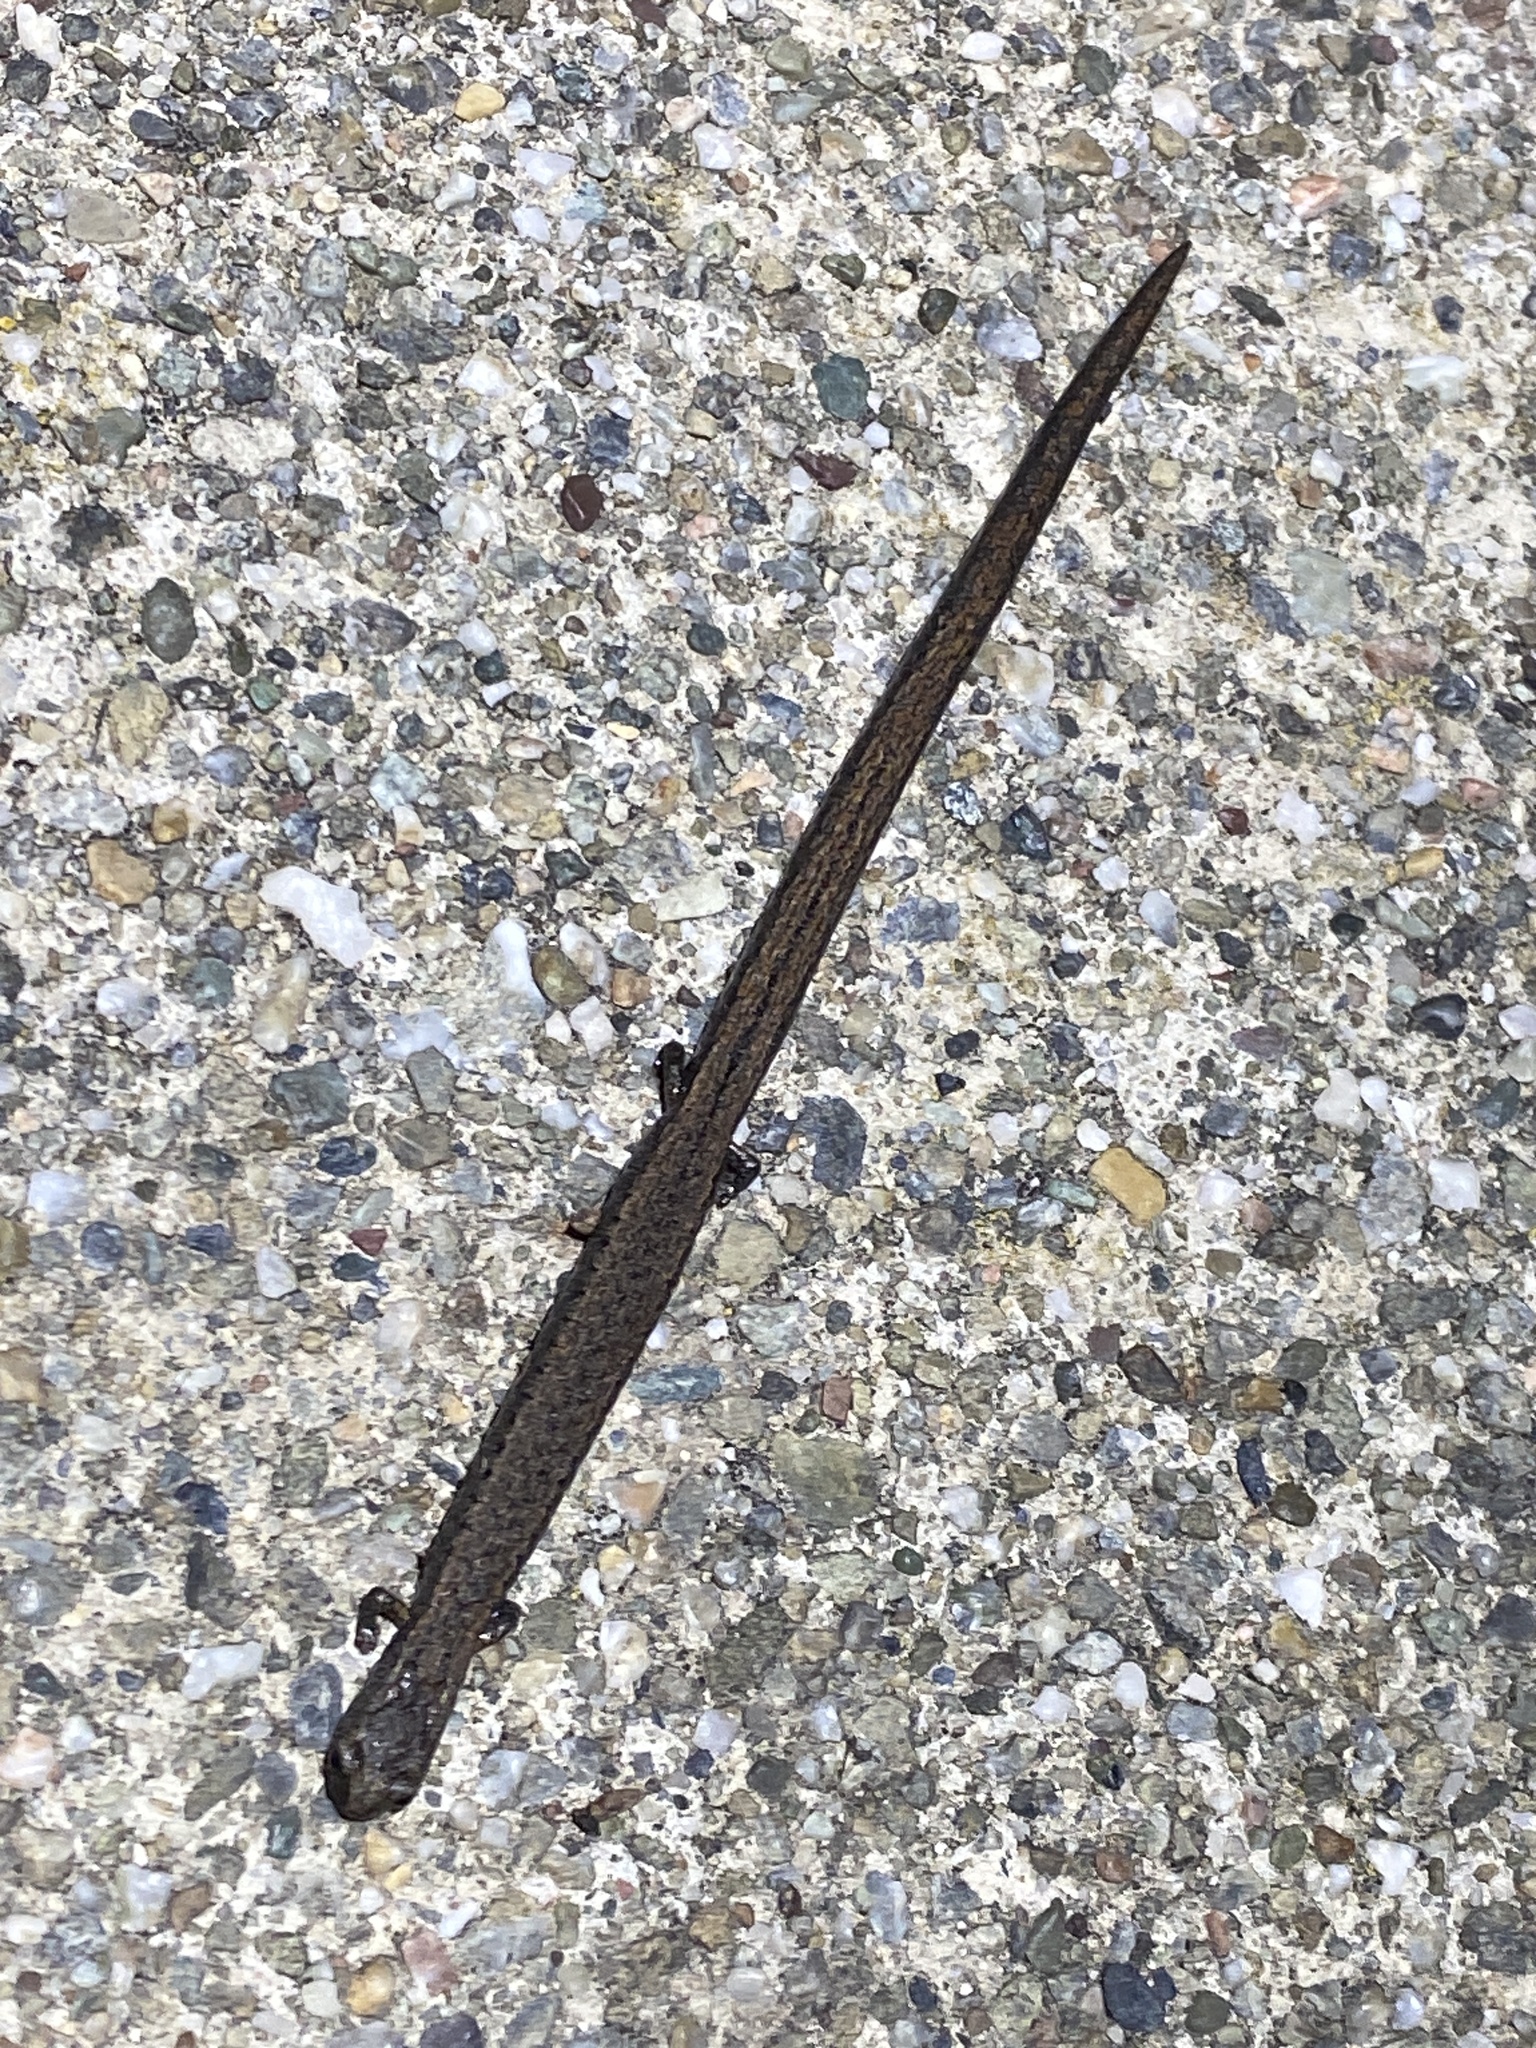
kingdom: Animalia
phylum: Chordata
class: Amphibia
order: Caudata
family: Plethodontidae
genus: Batrachoseps
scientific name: Batrachoseps attenuatus
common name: California slender salamander
